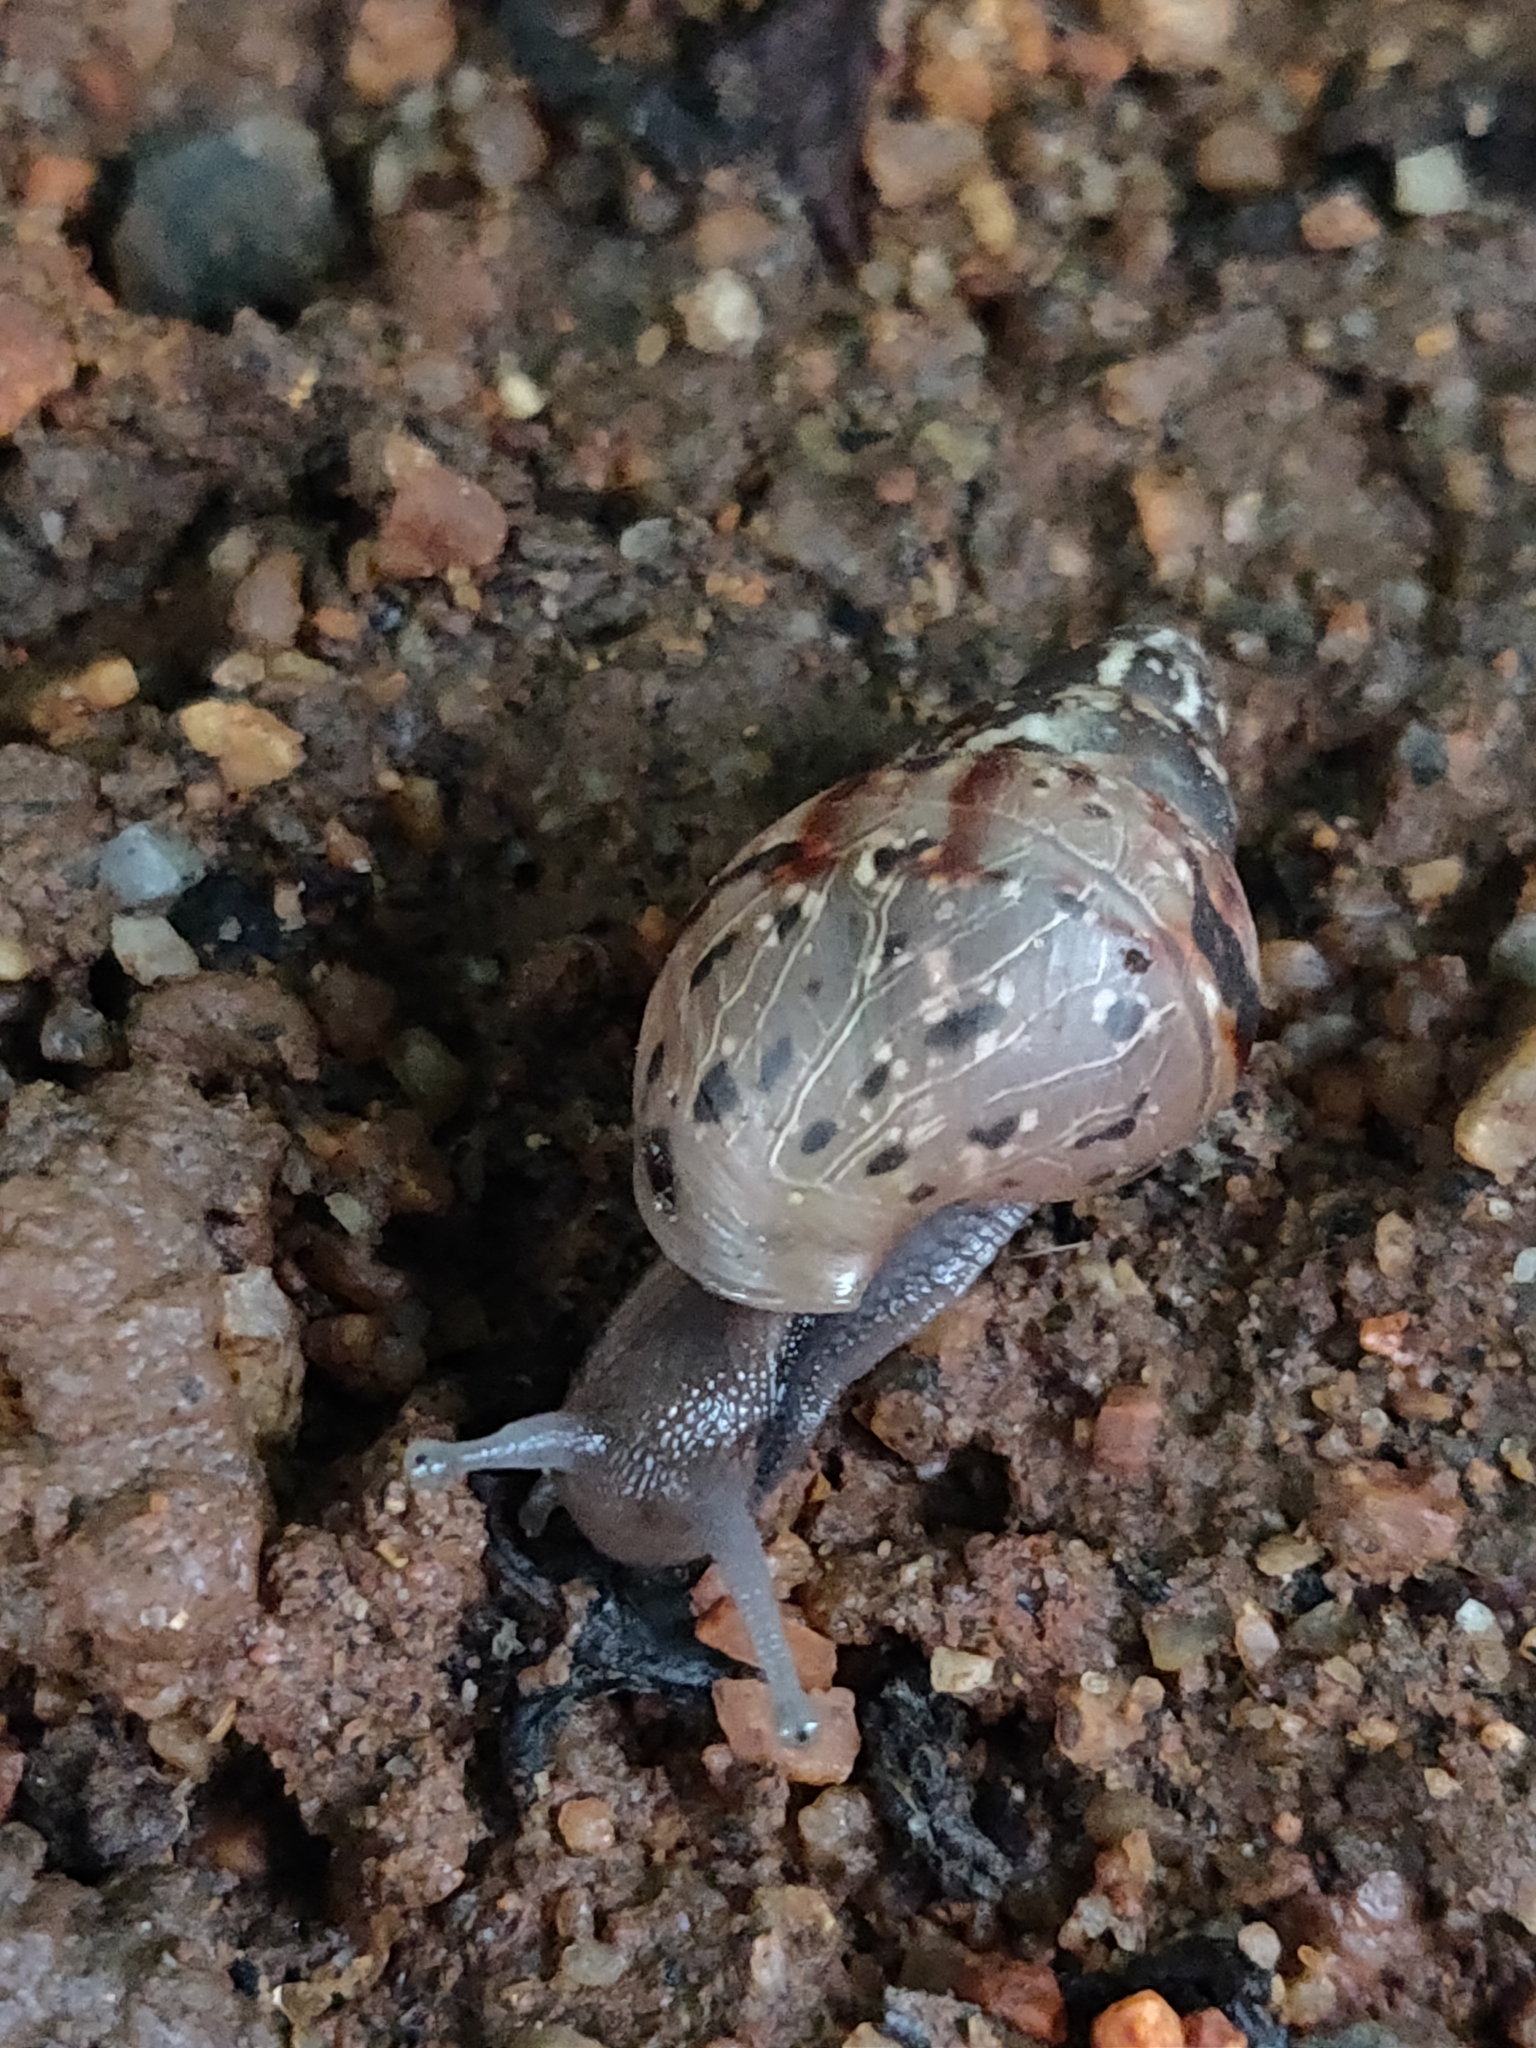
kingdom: Animalia
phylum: Mollusca
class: Gastropoda
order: Stylommatophora
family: Achatinidae
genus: Lissachatina
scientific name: Lissachatina fulica
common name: Giant african snail
